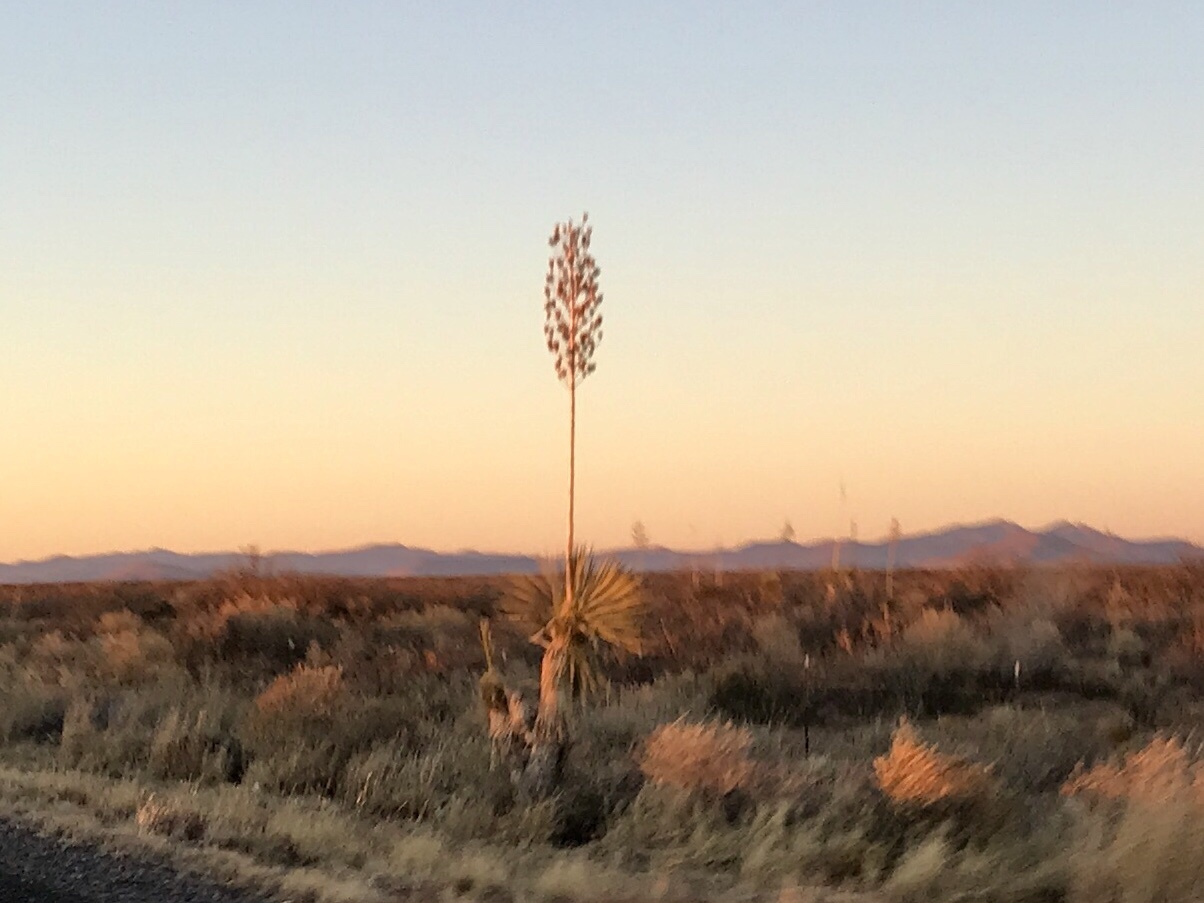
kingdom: Plantae
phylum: Tracheophyta
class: Liliopsida
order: Asparagales
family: Asparagaceae
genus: Yucca
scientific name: Yucca elata
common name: Palmella
